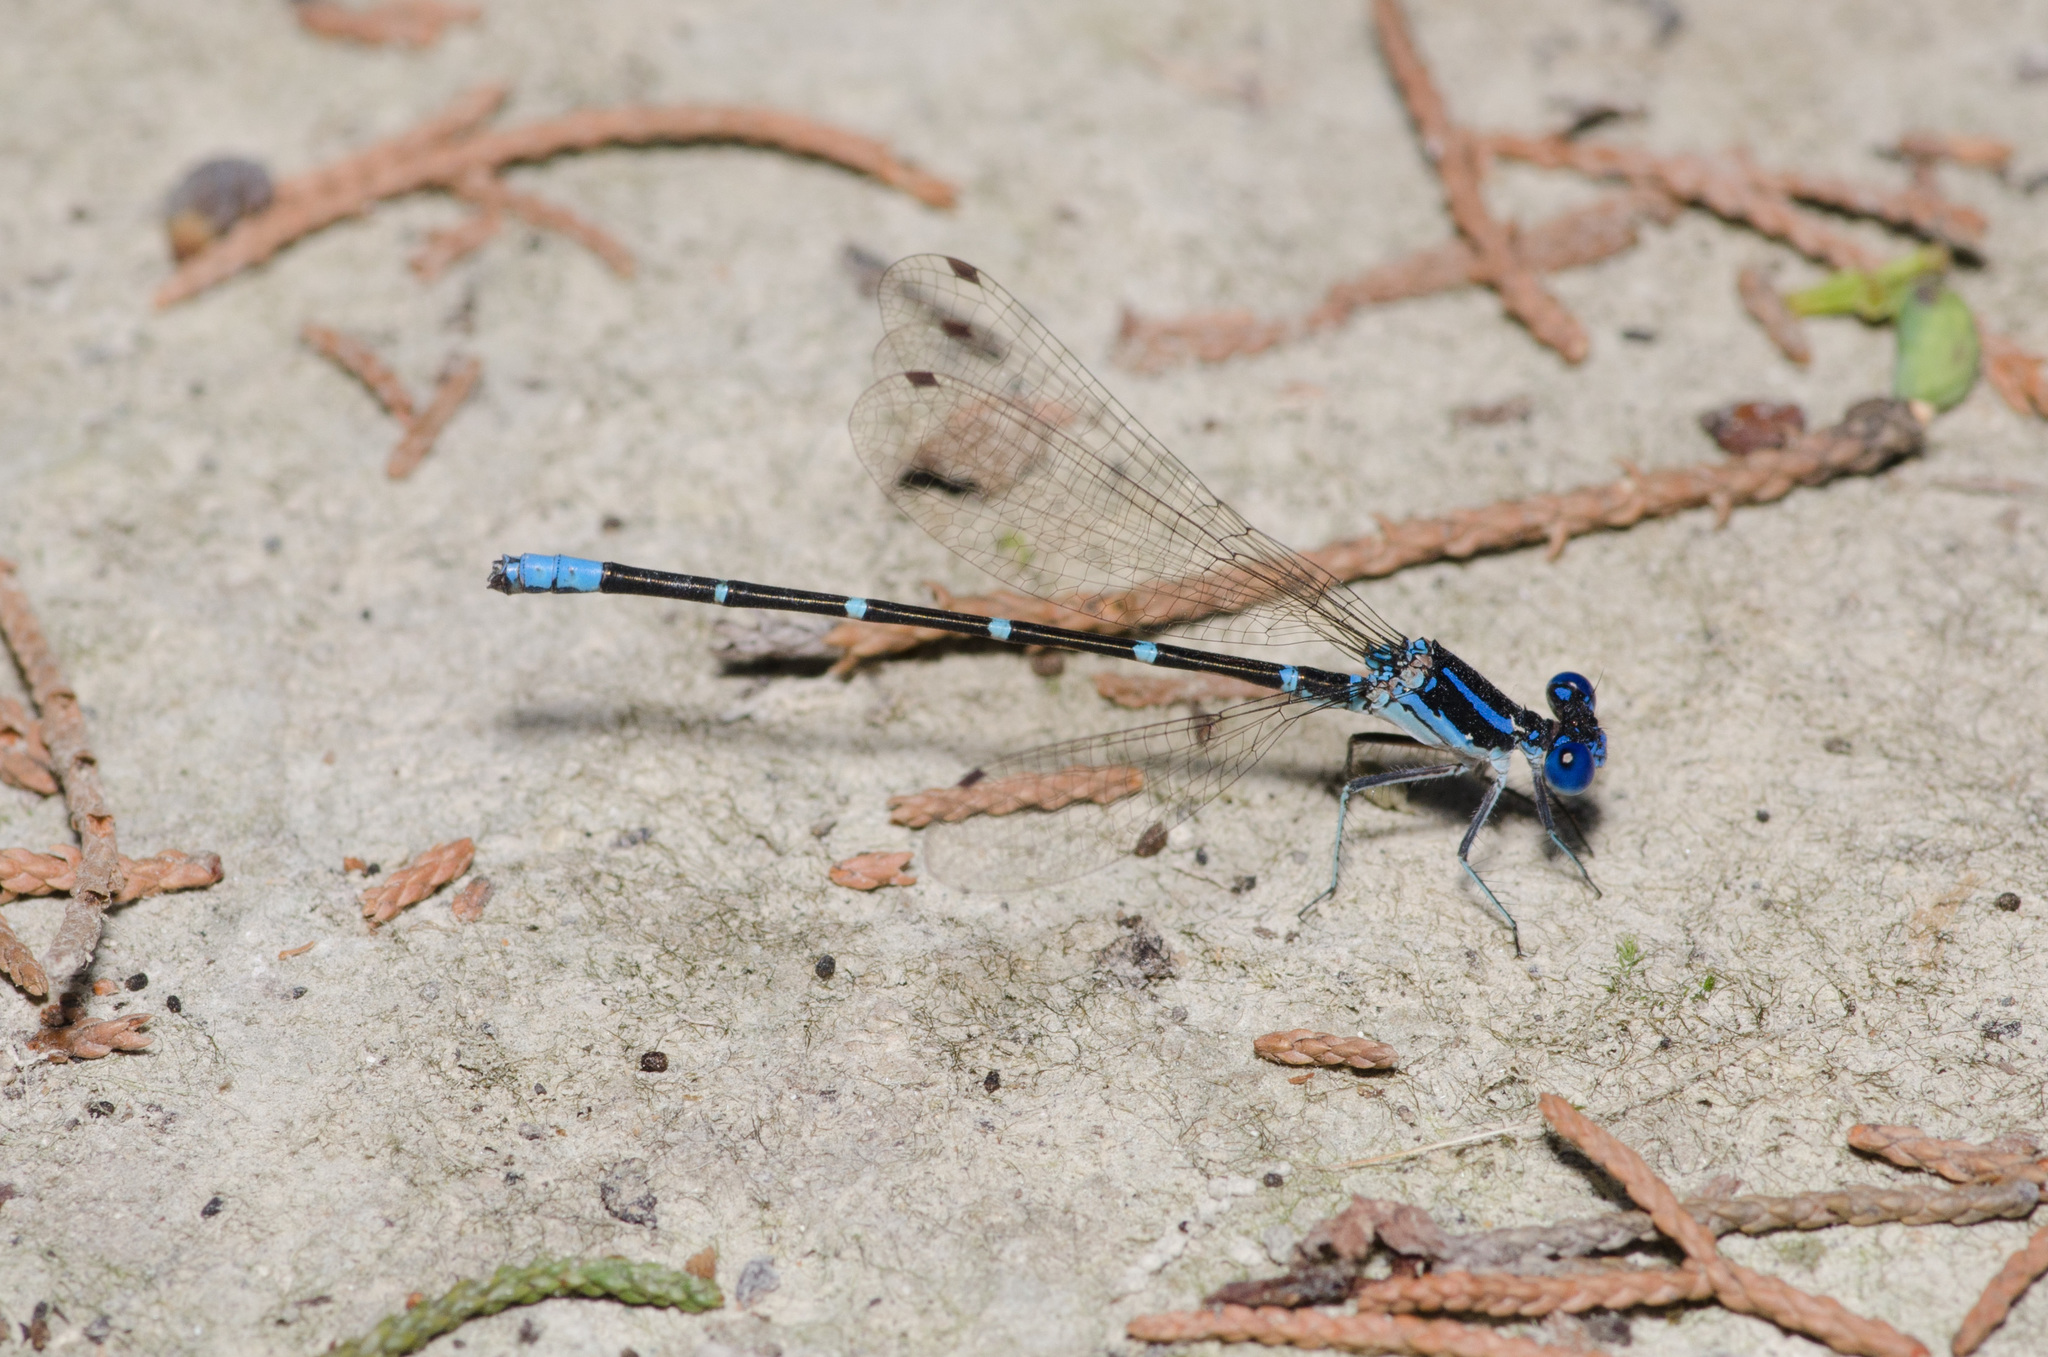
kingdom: Animalia
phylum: Arthropoda
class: Insecta
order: Odonata
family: Coenagrionidae
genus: Argia
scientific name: Argia sedula
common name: Blue-ringed dancer
